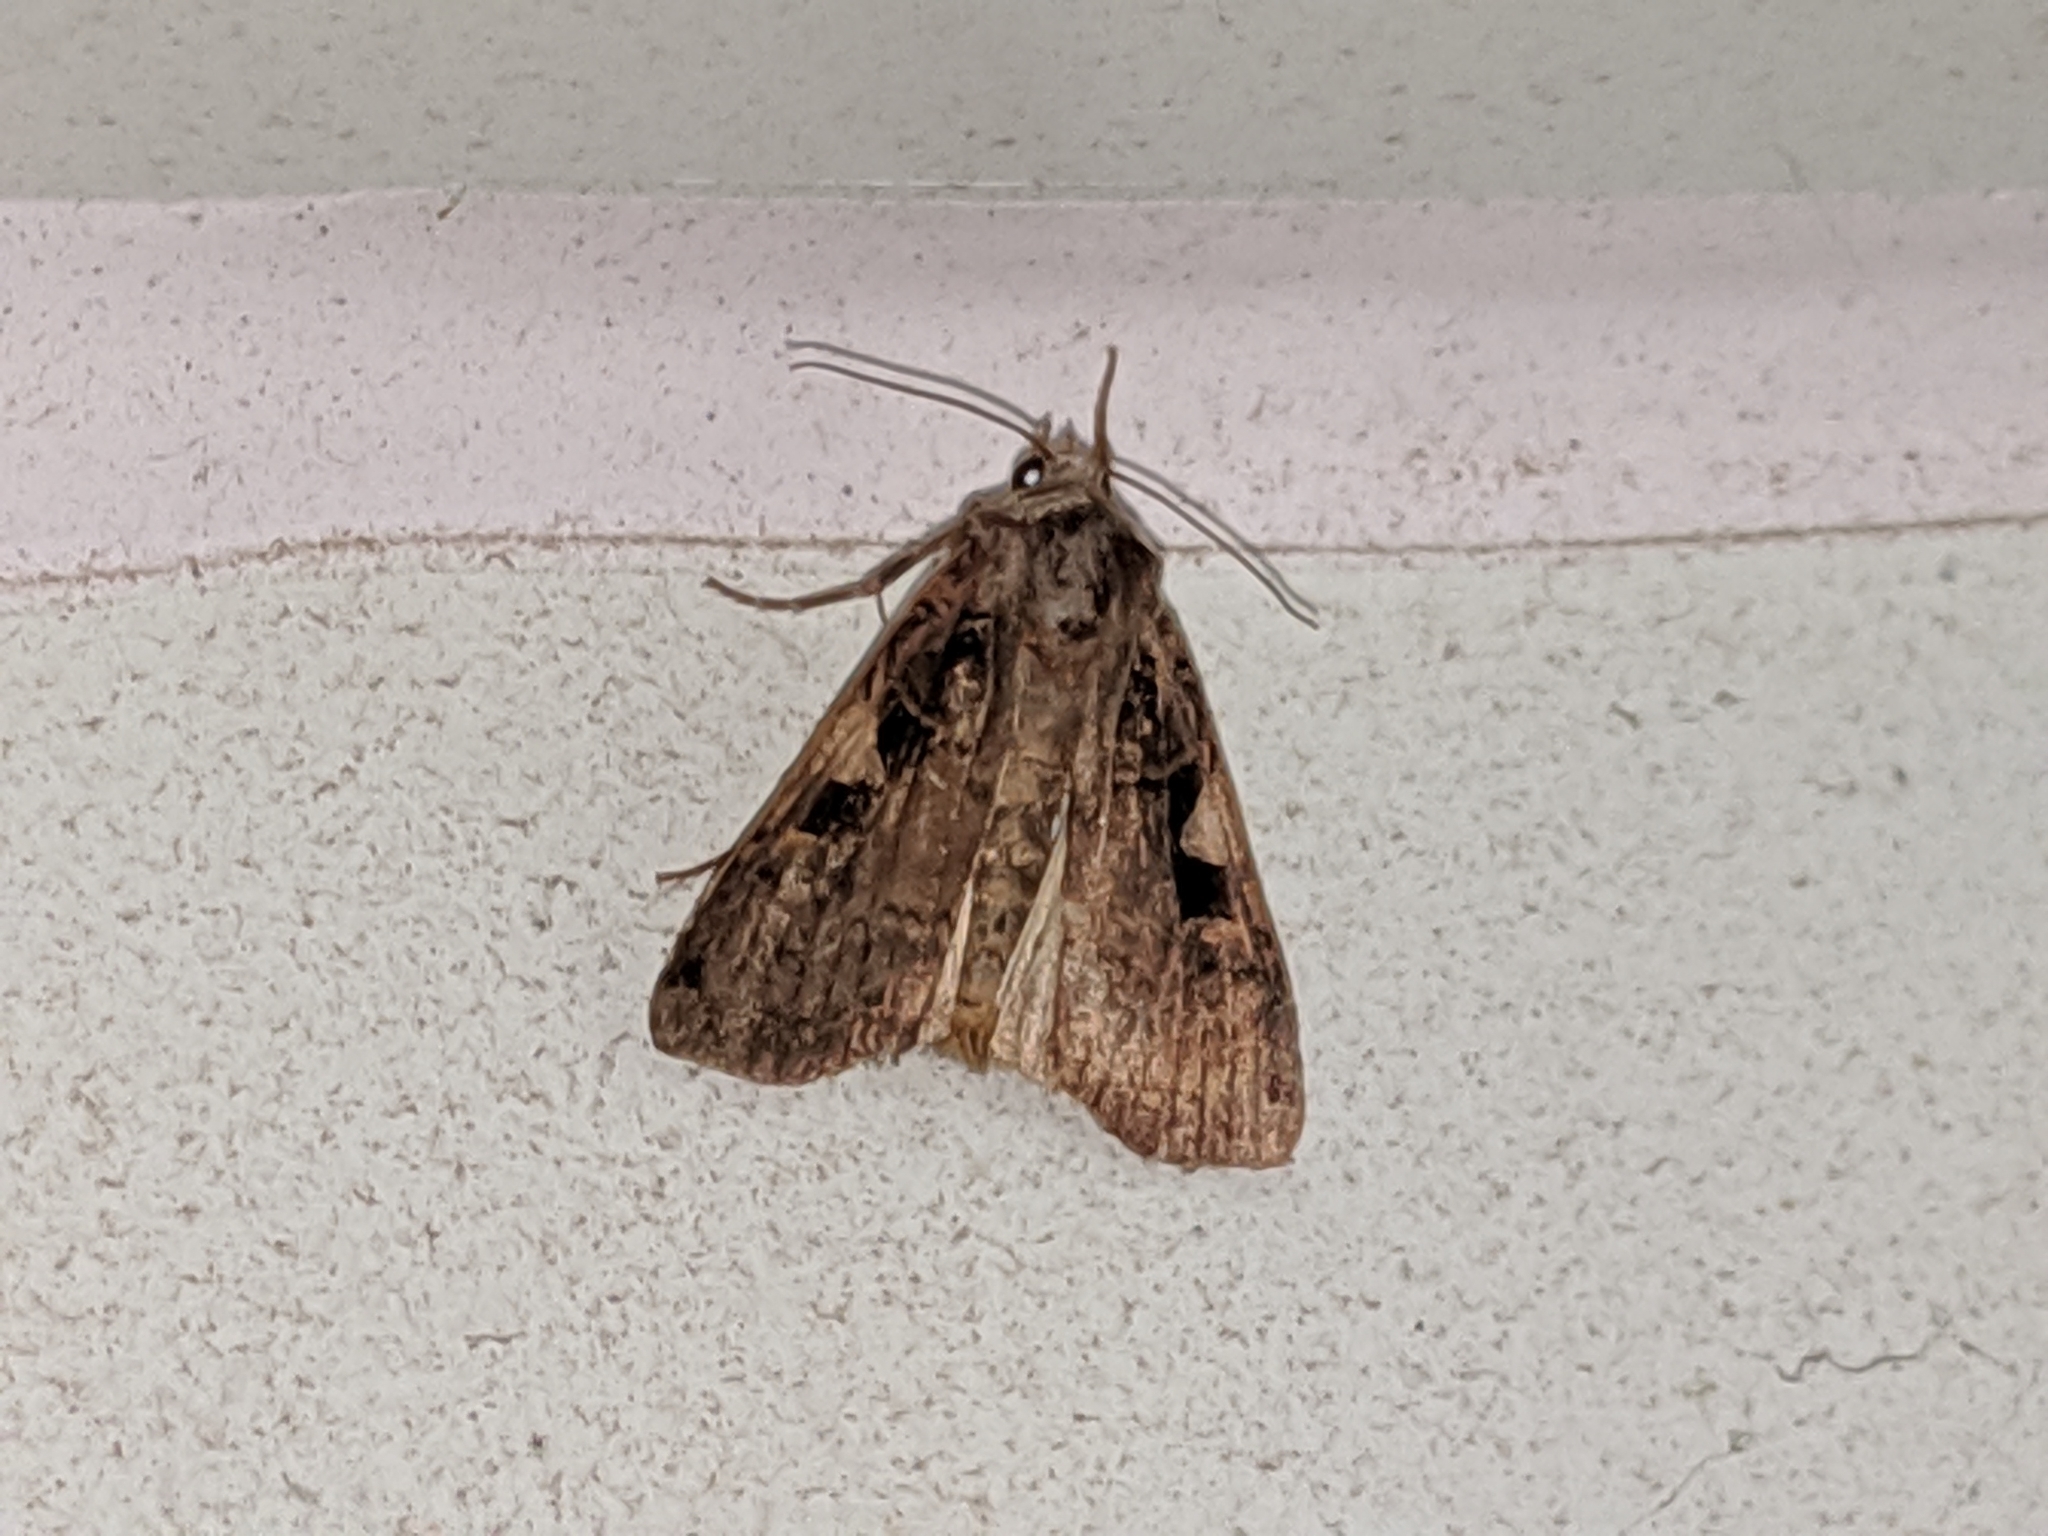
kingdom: Animalia
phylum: Arthropoda
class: Insecta
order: Lepidoptera
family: Noctuidae
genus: Xestia
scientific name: Xestia
